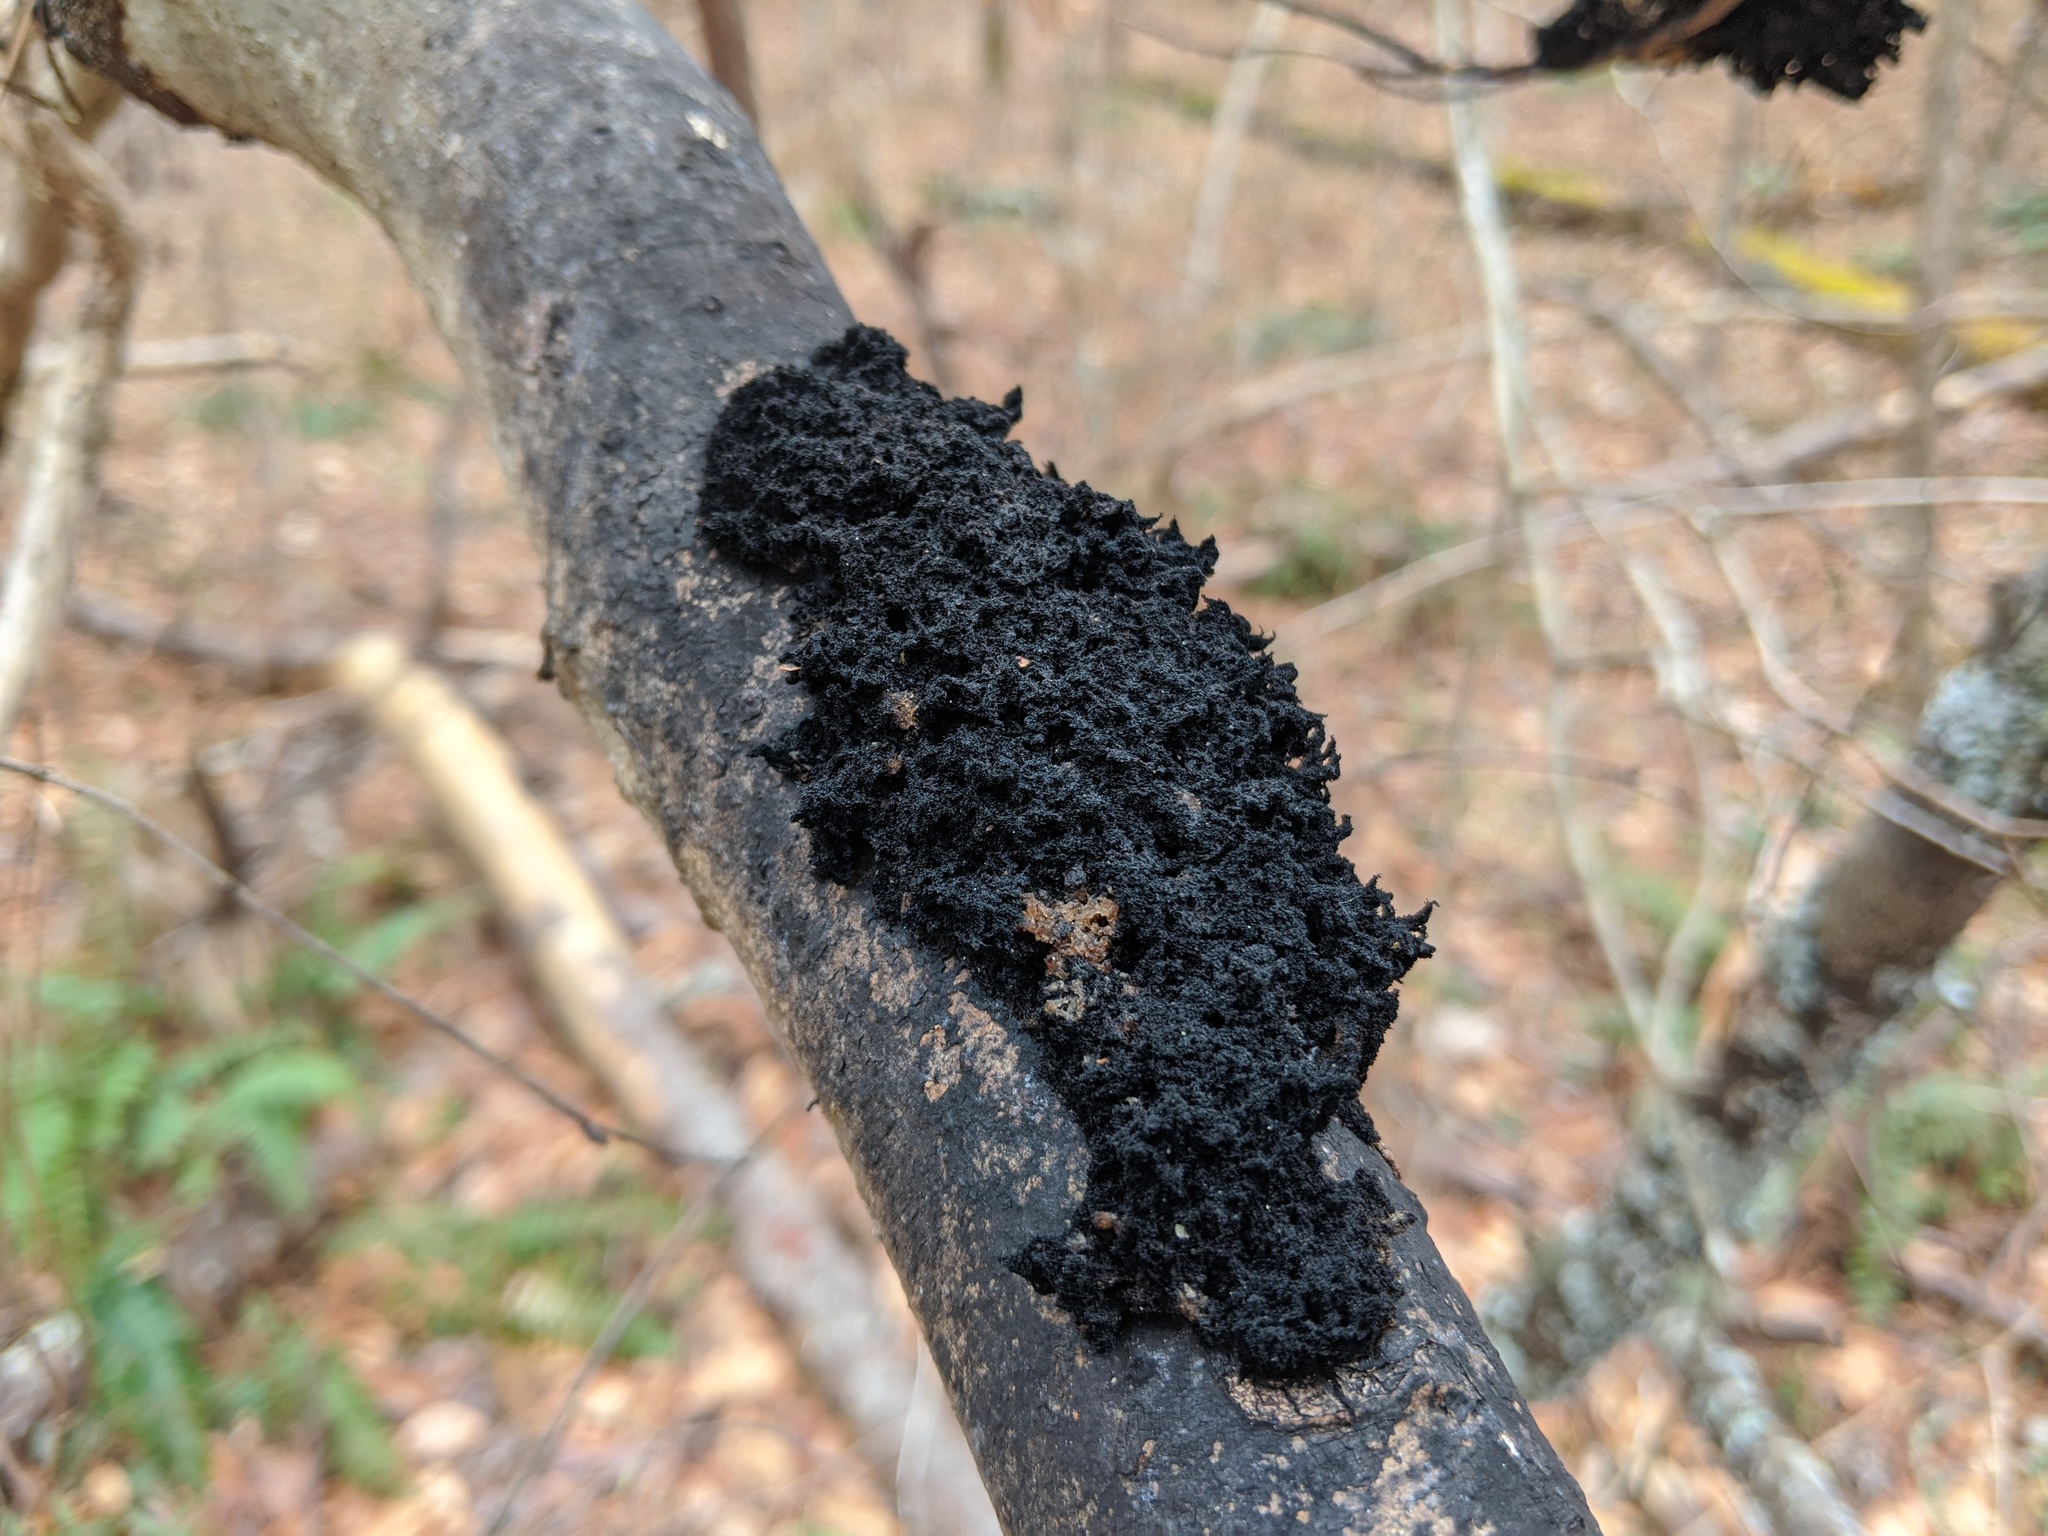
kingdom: Fungi
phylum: Ascomycota
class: Dothideomycetes
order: Capnodiales
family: Capnodiaceae
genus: Scorias
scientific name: Scorias spongiosa
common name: Black sooty mold
